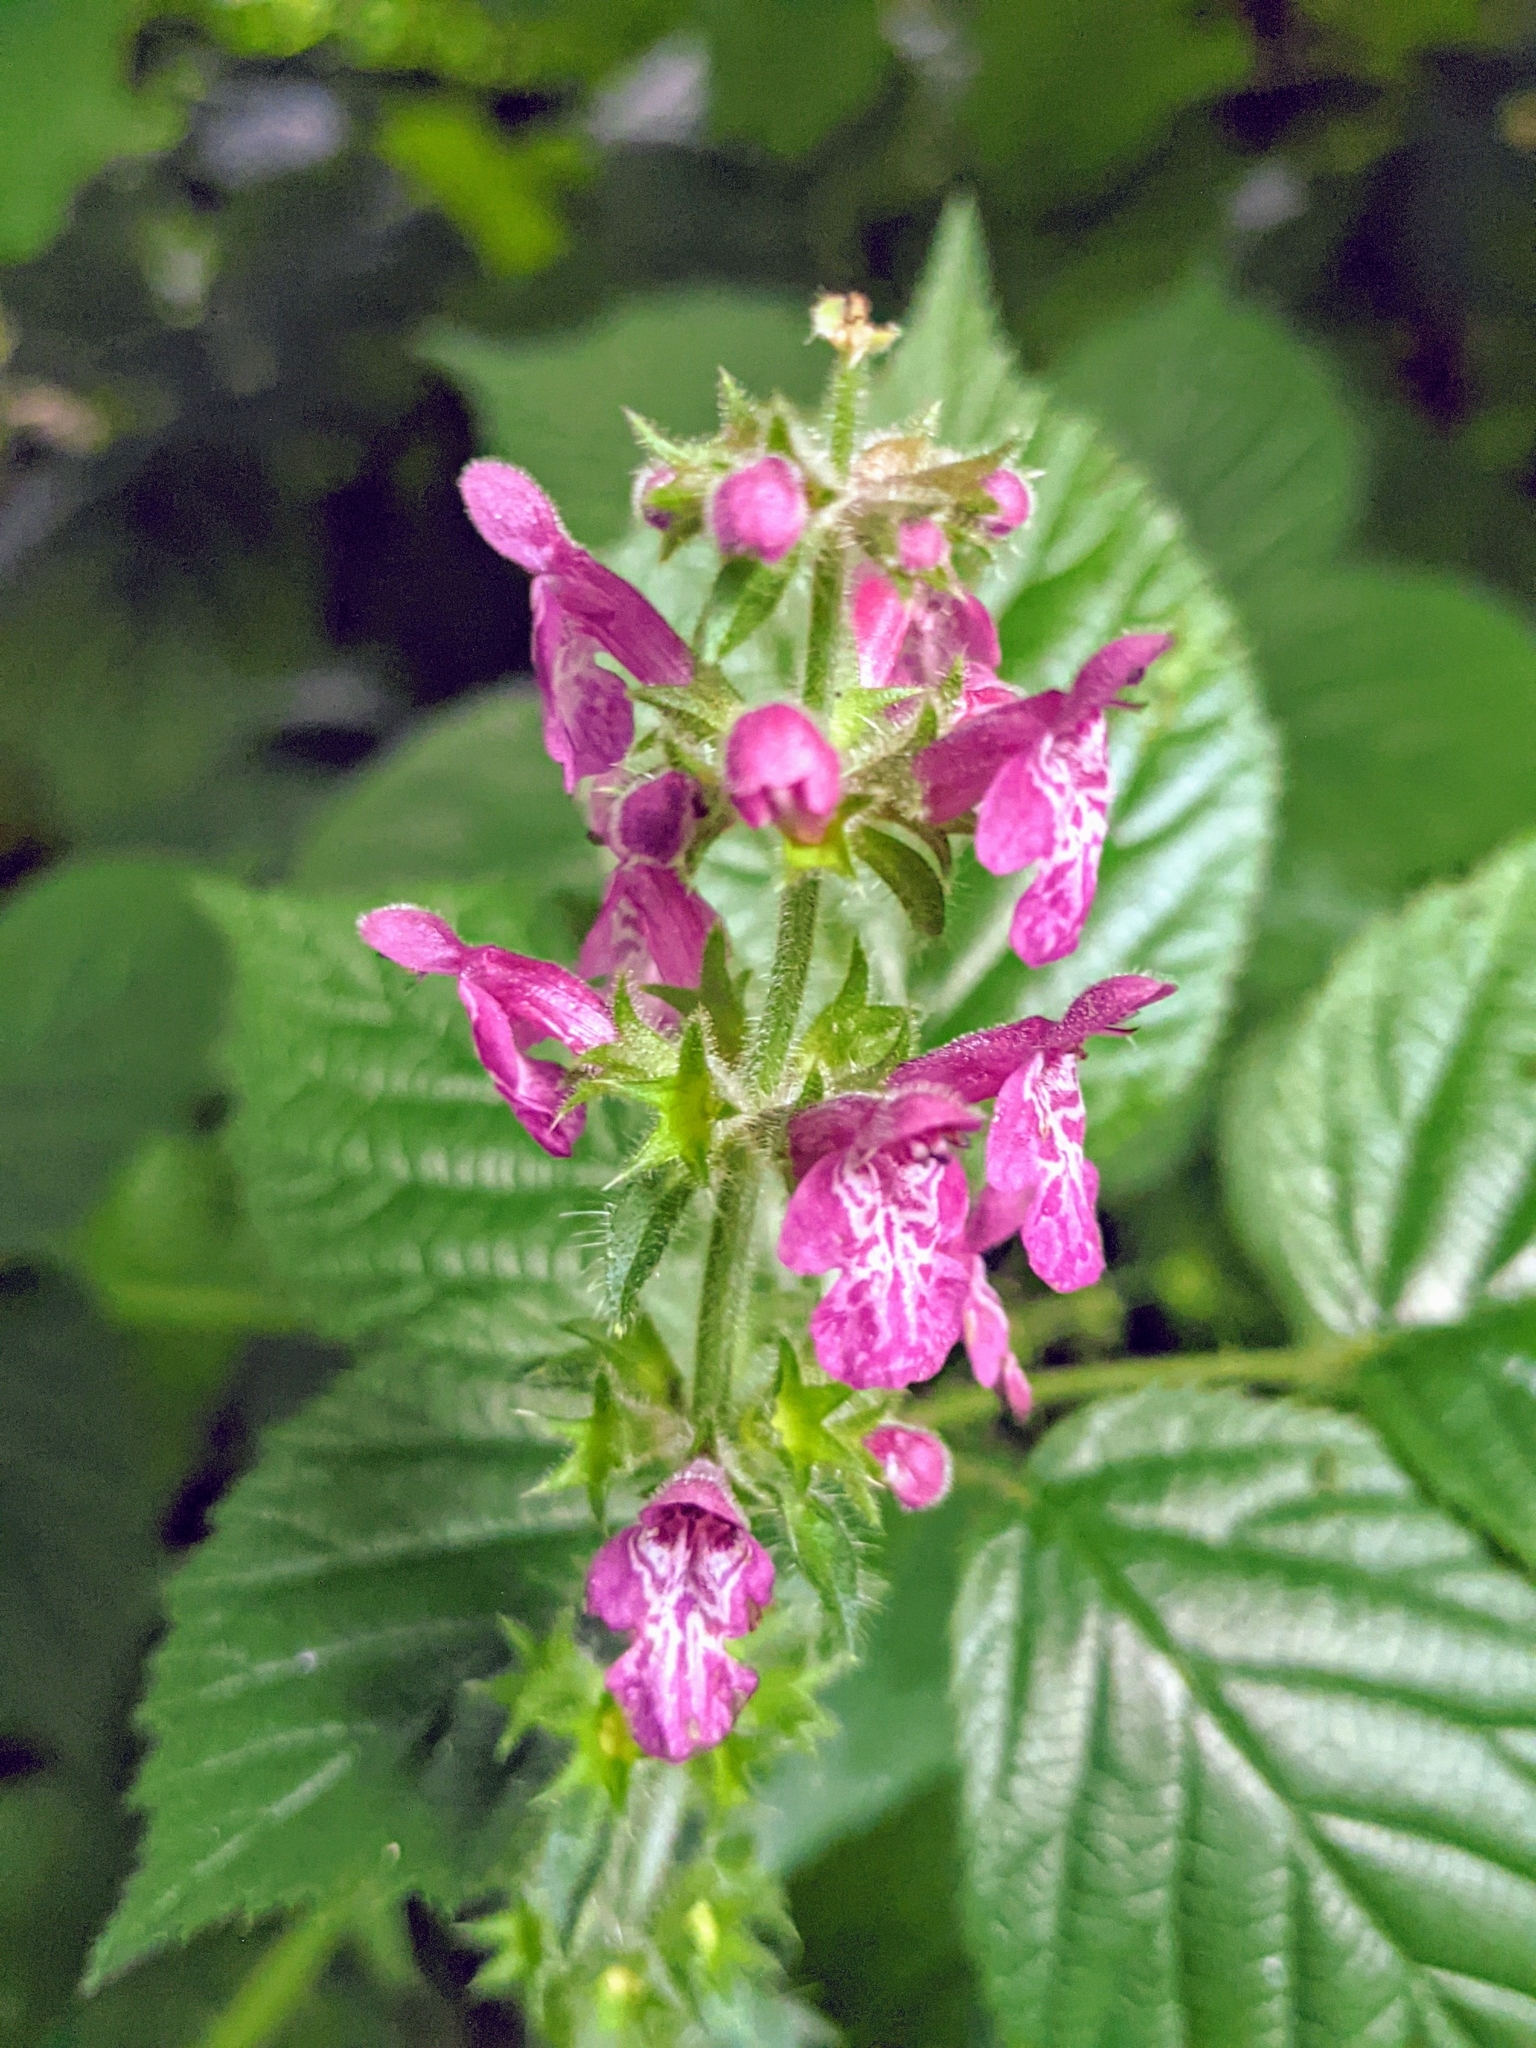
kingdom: Plantae
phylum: Tracheophyta
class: Magnoliopsida
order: Lamiales
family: Lamiaceae
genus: Stachys
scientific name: Stachys sylvatica
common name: Hedge woundwort
